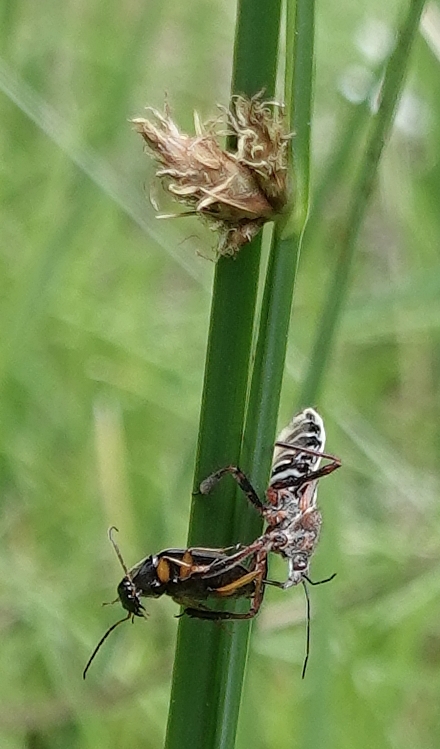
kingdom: Animalia
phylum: Arthropoda
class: Insecta
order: Hemiptera
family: Reduviidae
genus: Apiomerus
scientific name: Apiomerus spissipes
